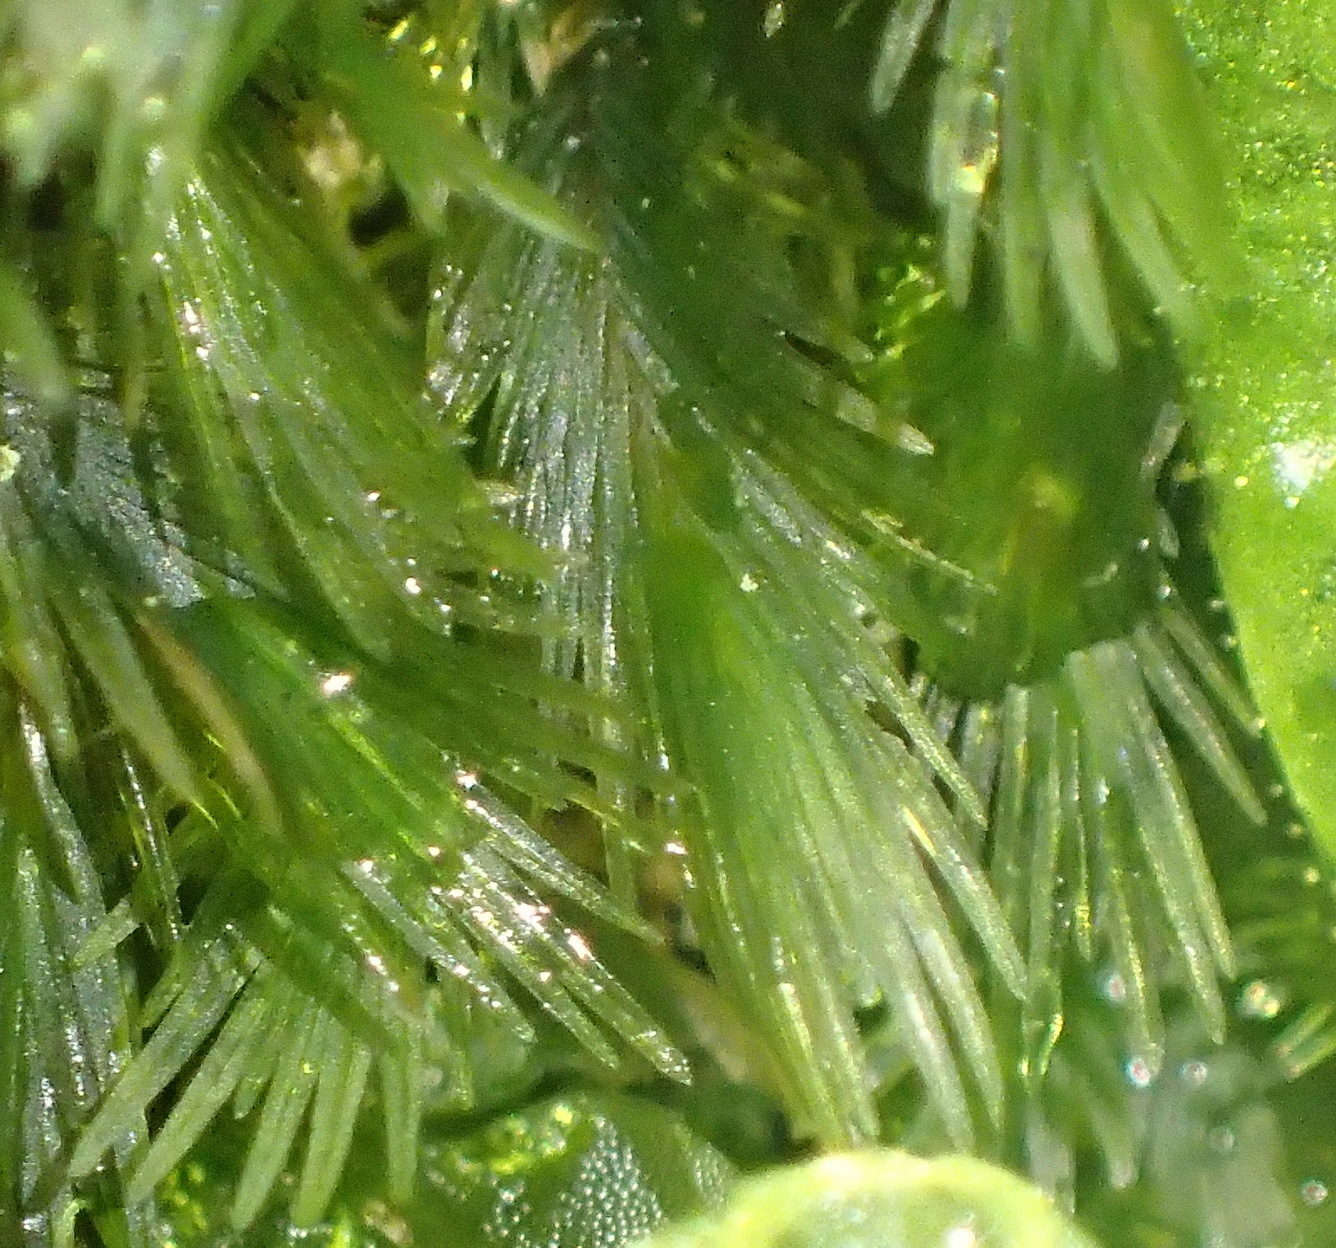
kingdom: Plantae
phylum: Bryophyta
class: Bryopsida
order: Dicranales
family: Fissidentaceae
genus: Fissidens
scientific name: Fissidens dubius
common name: Rock pocket moss
